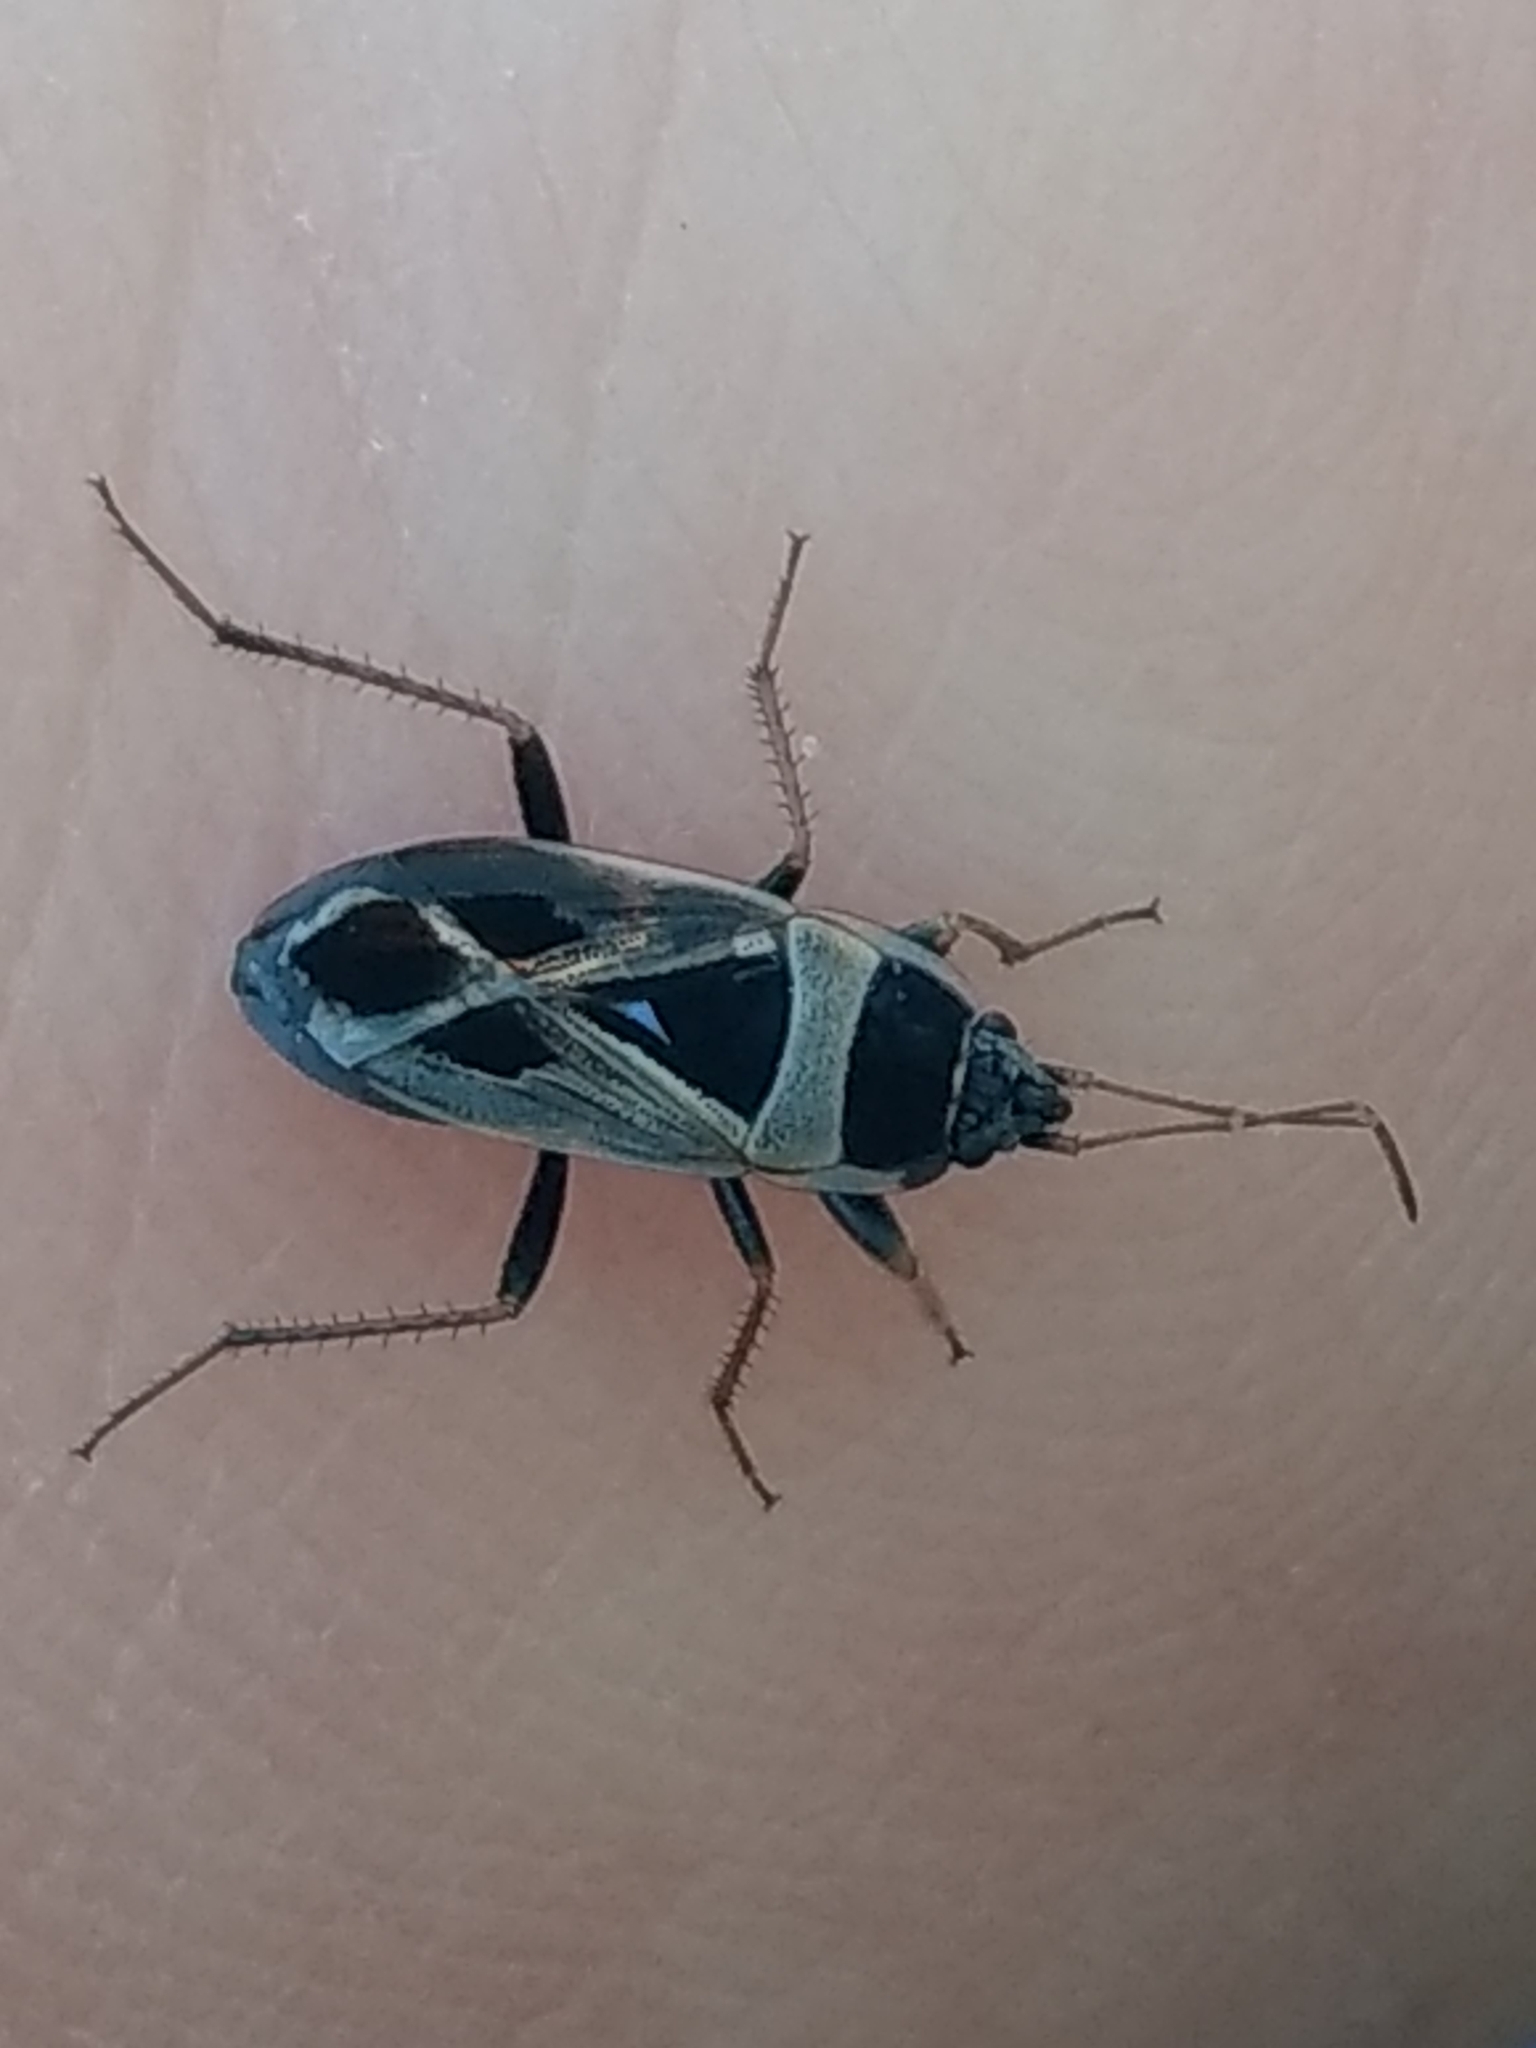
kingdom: Animalia
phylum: Arthropoda
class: Insecta
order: Hemiptera
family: Rhyparochromidae
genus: Xanthochilus
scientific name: Xanthochilus saturnius
